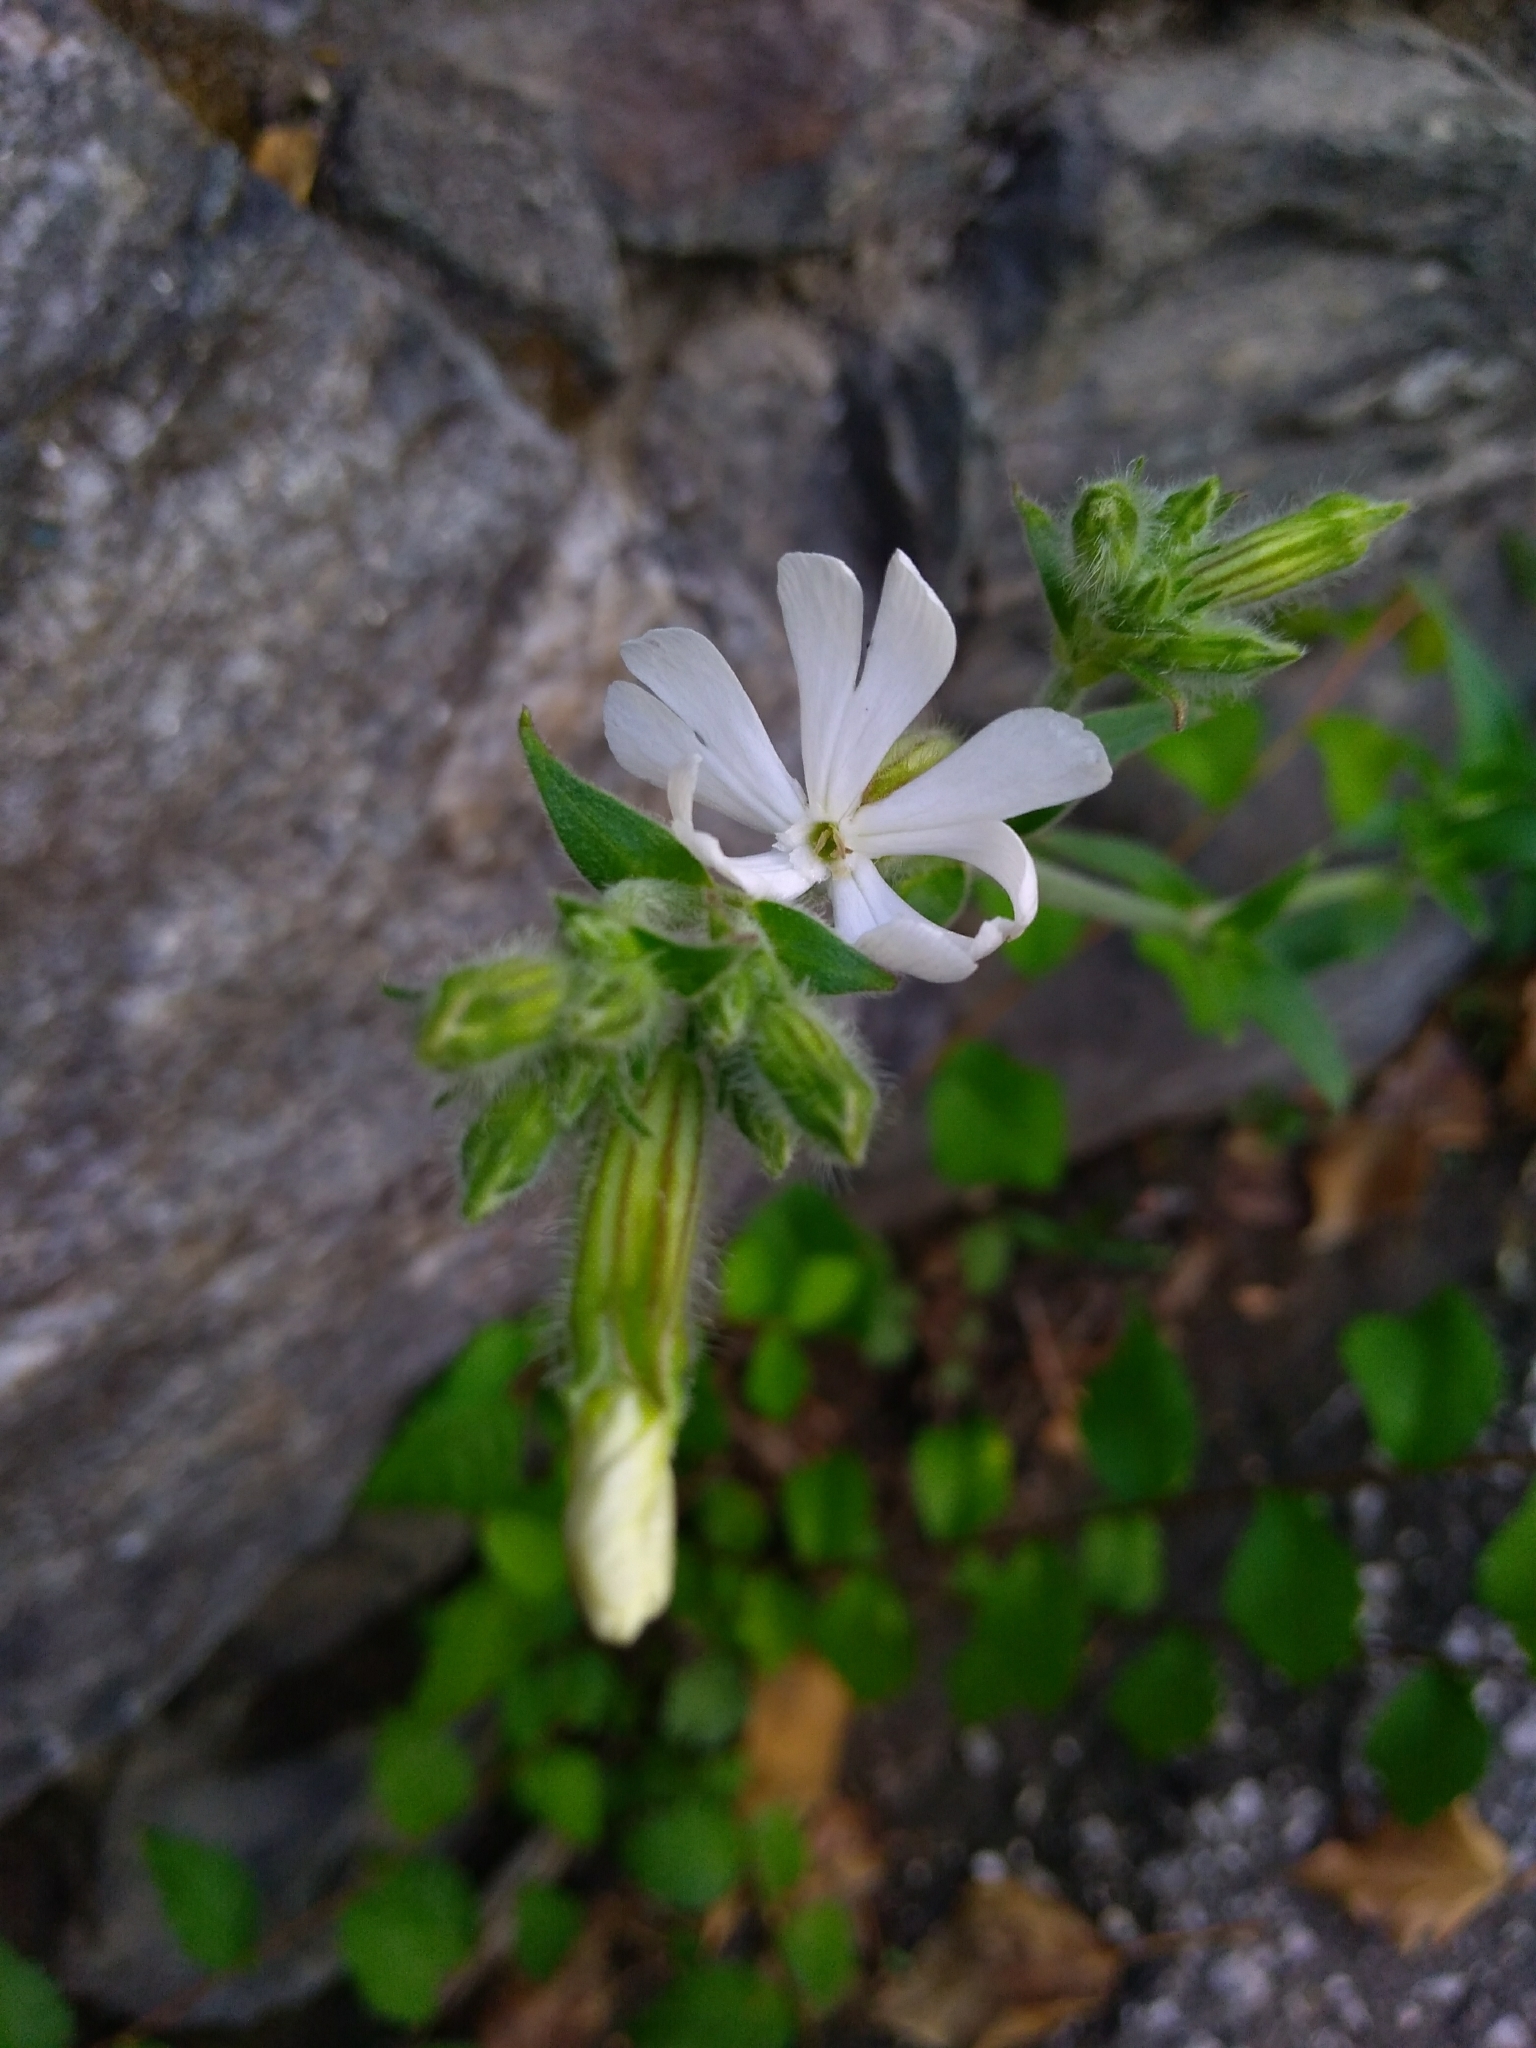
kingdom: Plantae
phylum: Tracheophyta
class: Magnoliopsida
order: Caryophyllales
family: Caryophyllaceae
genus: Silene
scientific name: Silene latifolia
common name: White campion
